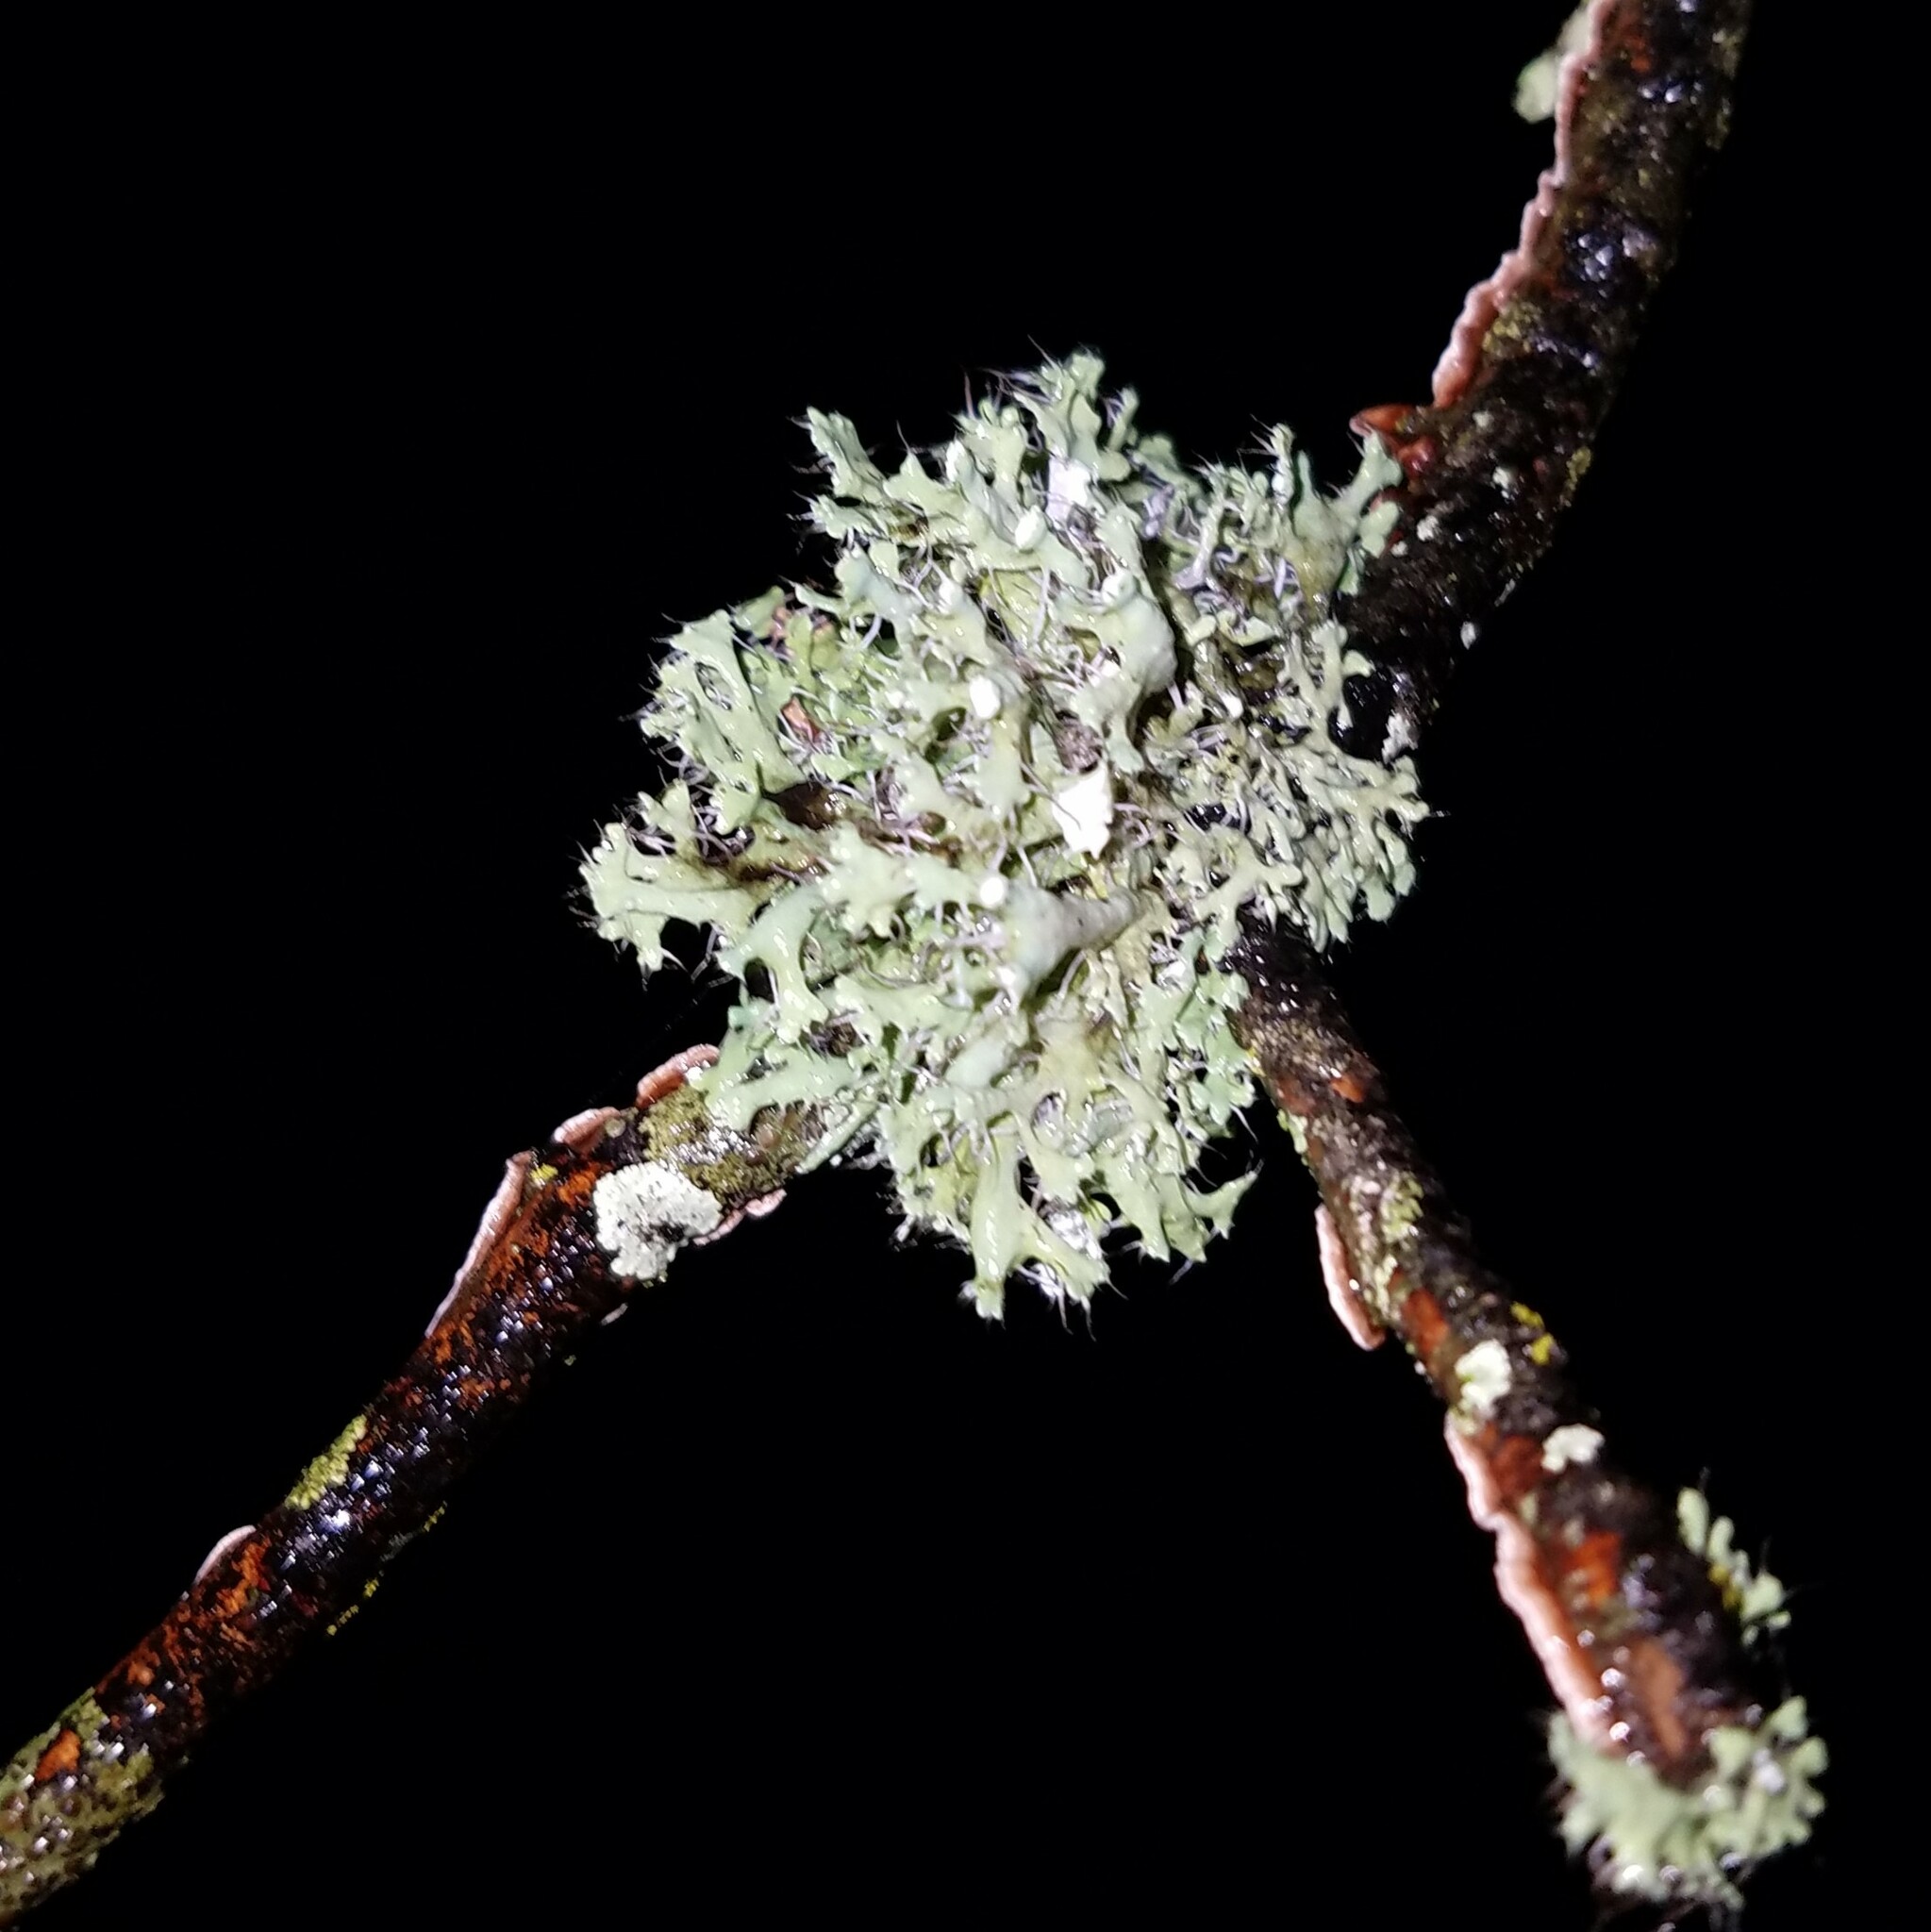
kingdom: Fungi
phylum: Ascomycota
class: Lecanoromycetes
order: Caliciales
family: Physciaceae
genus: Heterodermia
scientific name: Heterodermia echinata
